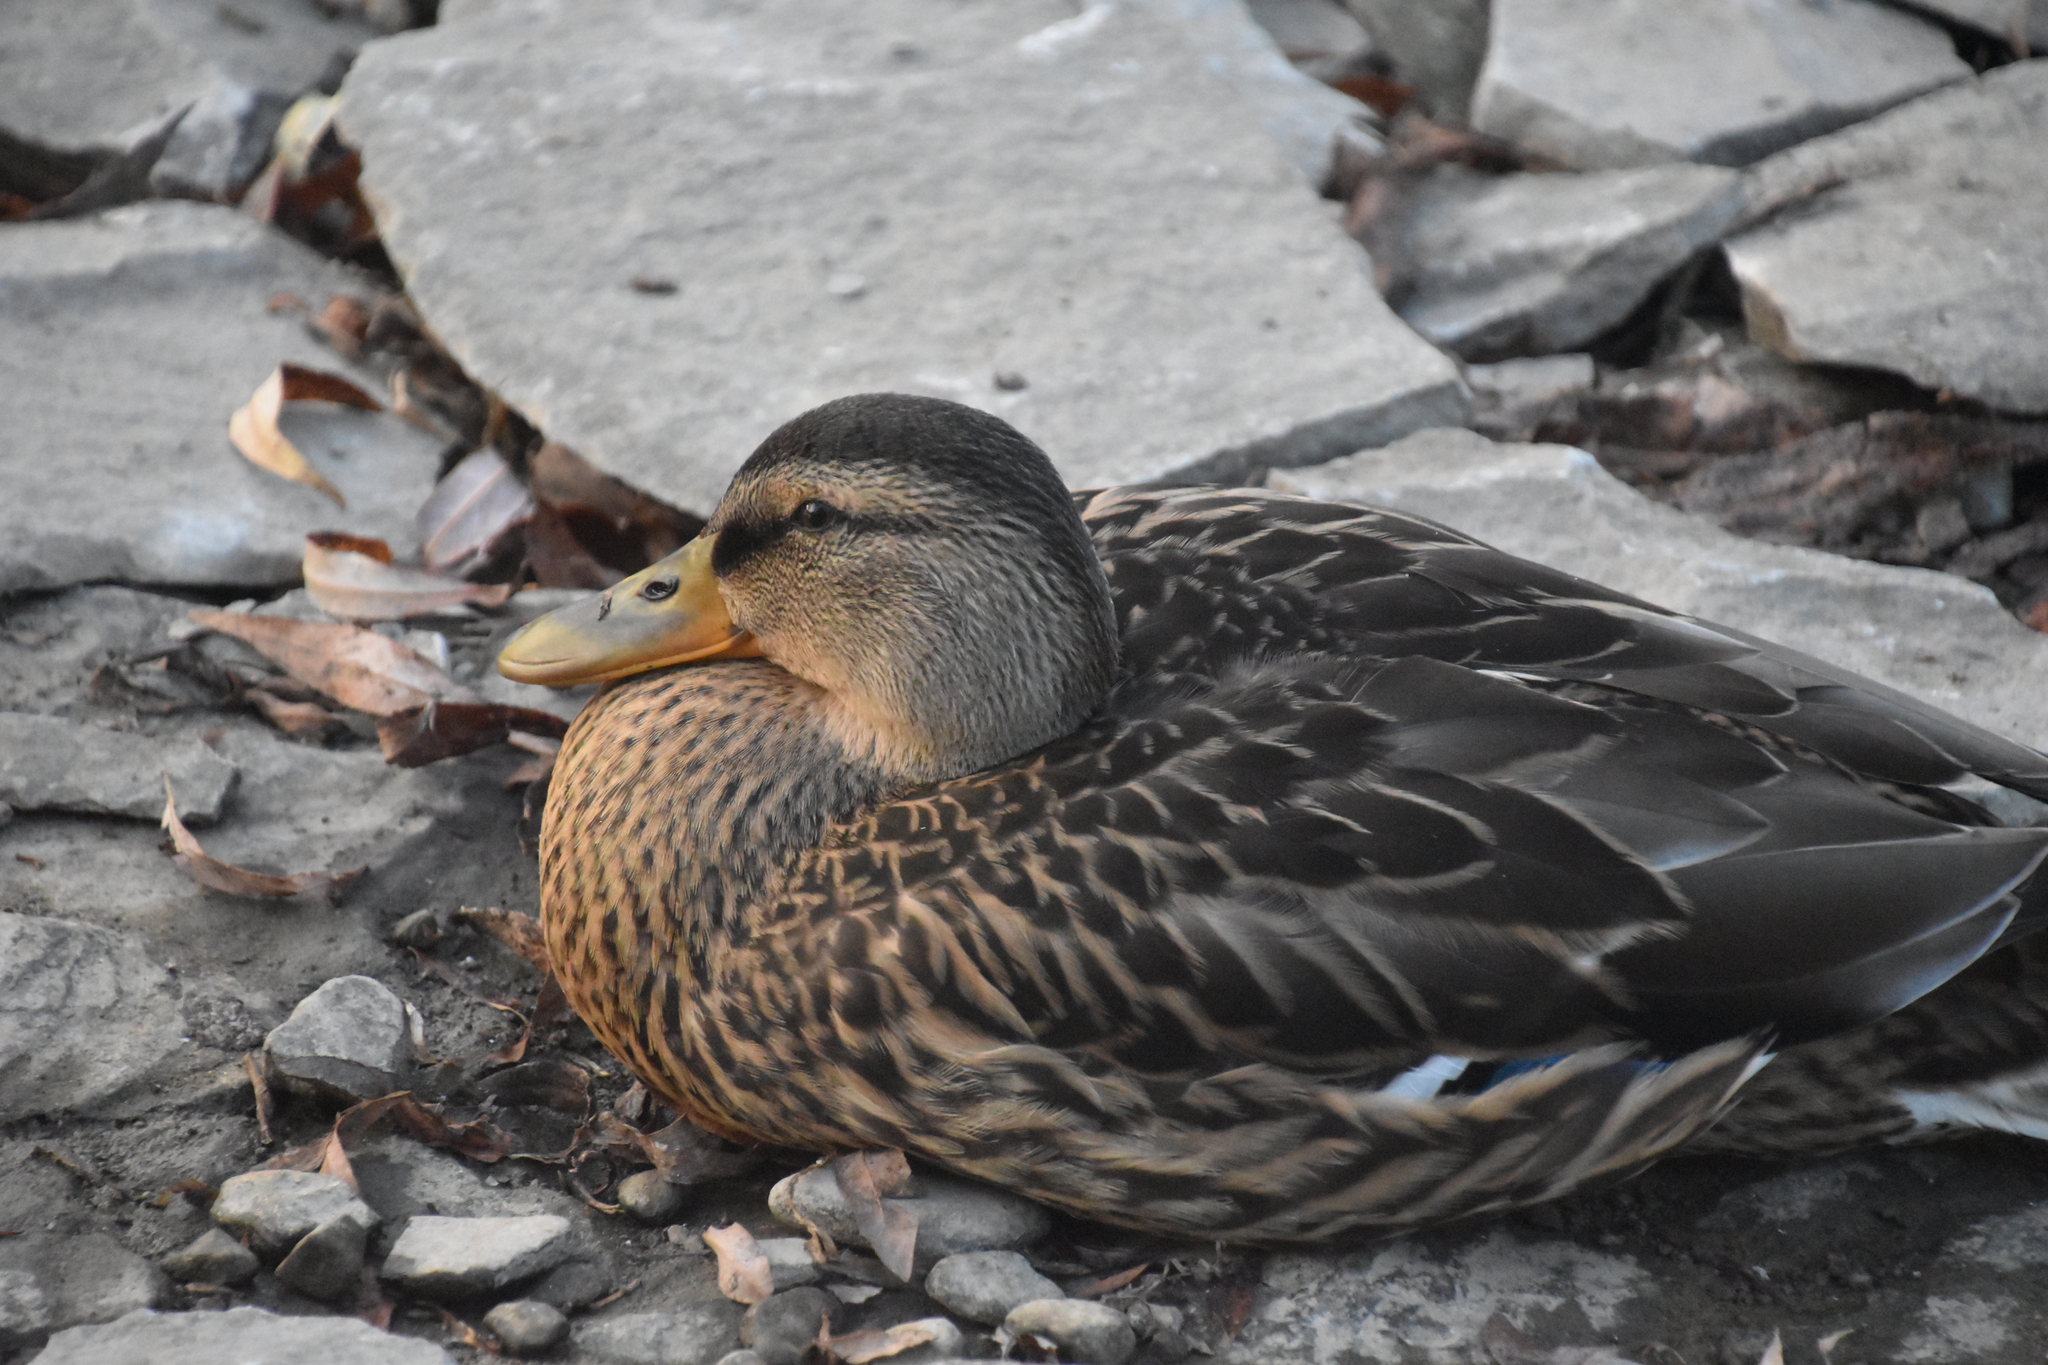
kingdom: Animalia
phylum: Chordata
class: Aves
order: Anseriformes
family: Anatidae
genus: Anas
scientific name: Anas platyrhynchos
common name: Mallard
